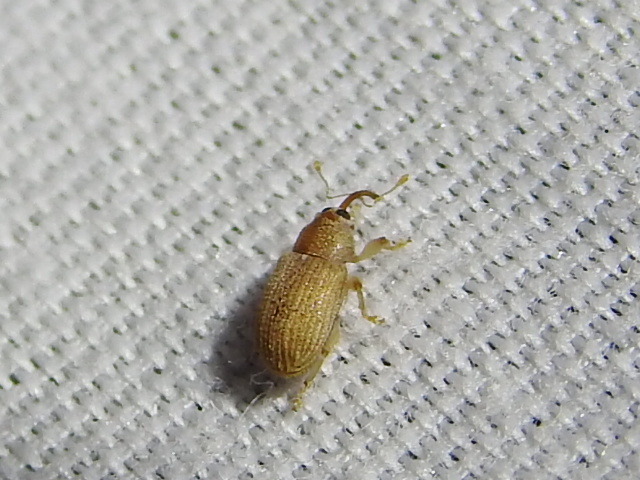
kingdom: Animalia
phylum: Arthropoda
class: Insecta
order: Coleoptera
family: Curculionidae
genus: Lignyodes
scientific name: Lignyodes helvolus
